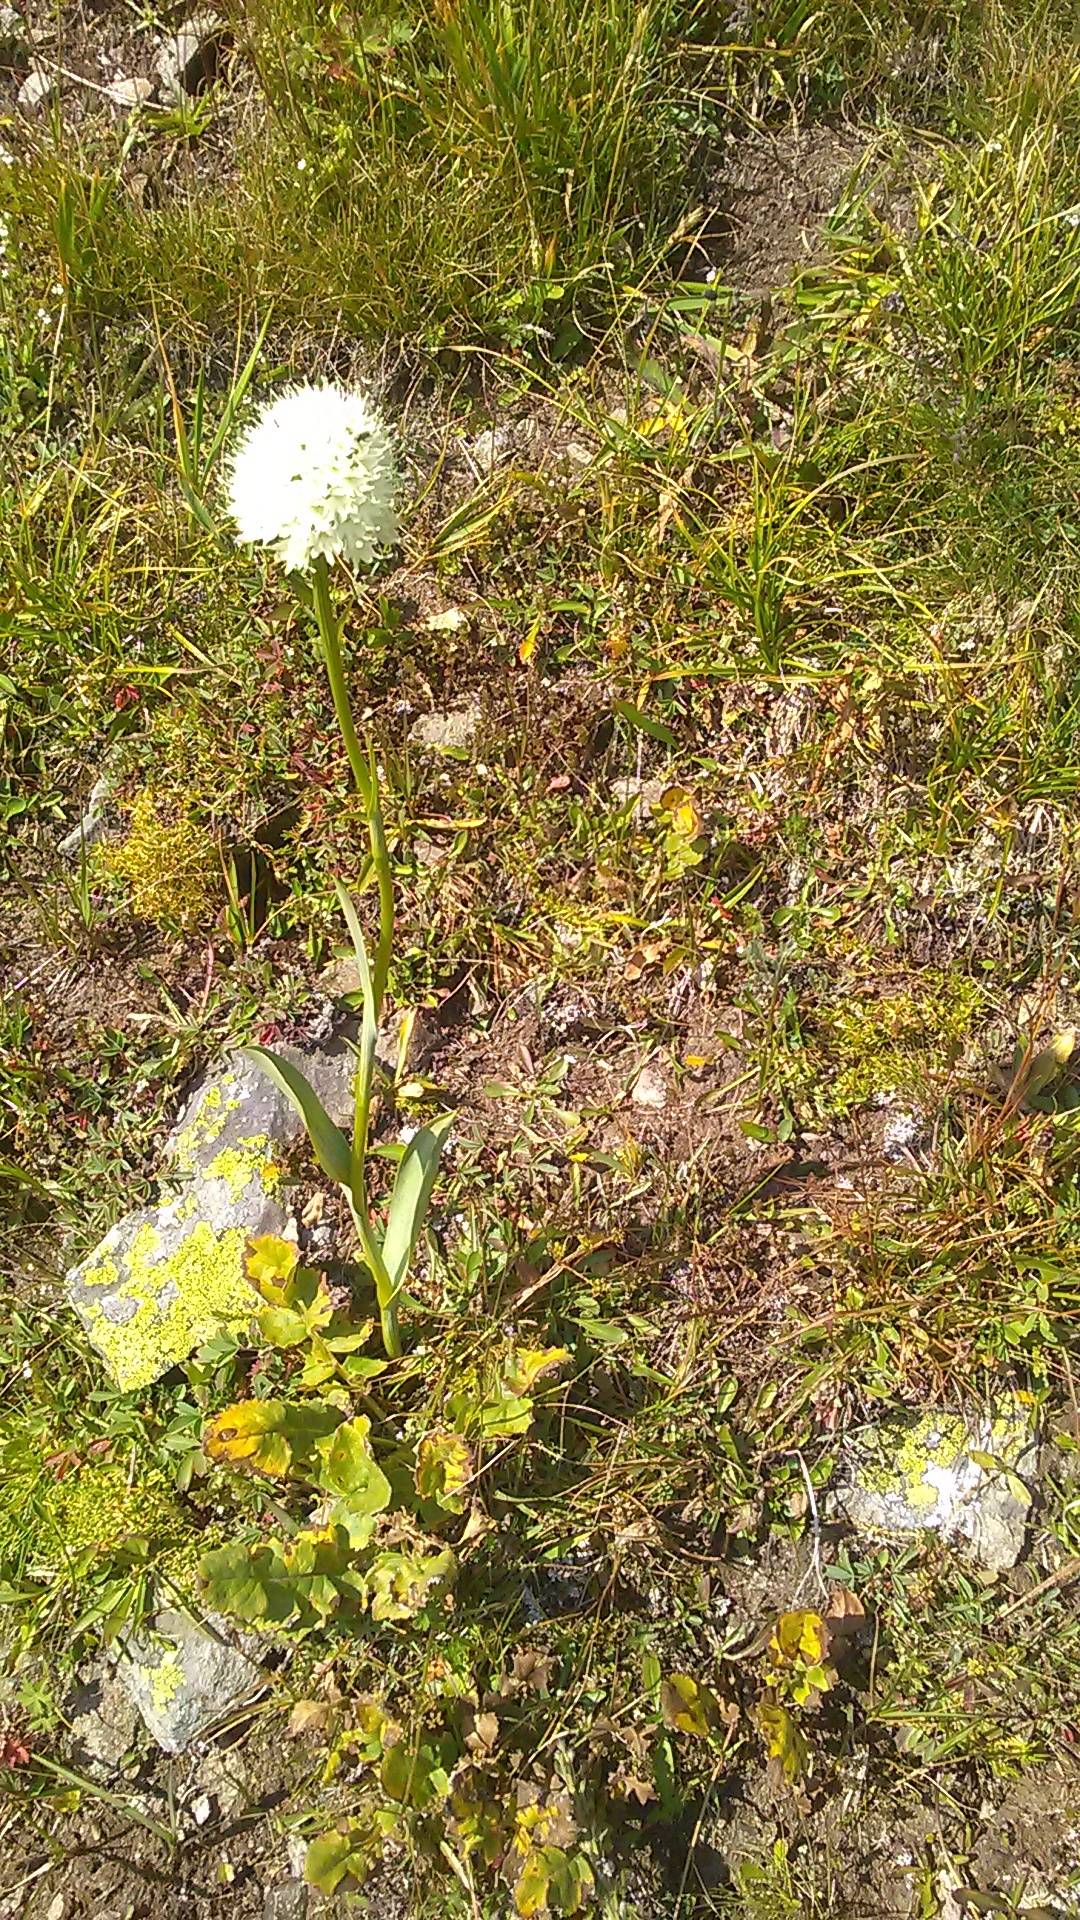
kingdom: Plantae
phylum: Tracheophyta
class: Liliopsida
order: Asparagales
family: Orchidaceae
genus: Traunsteinera
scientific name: Traunsteinera sphaerica
